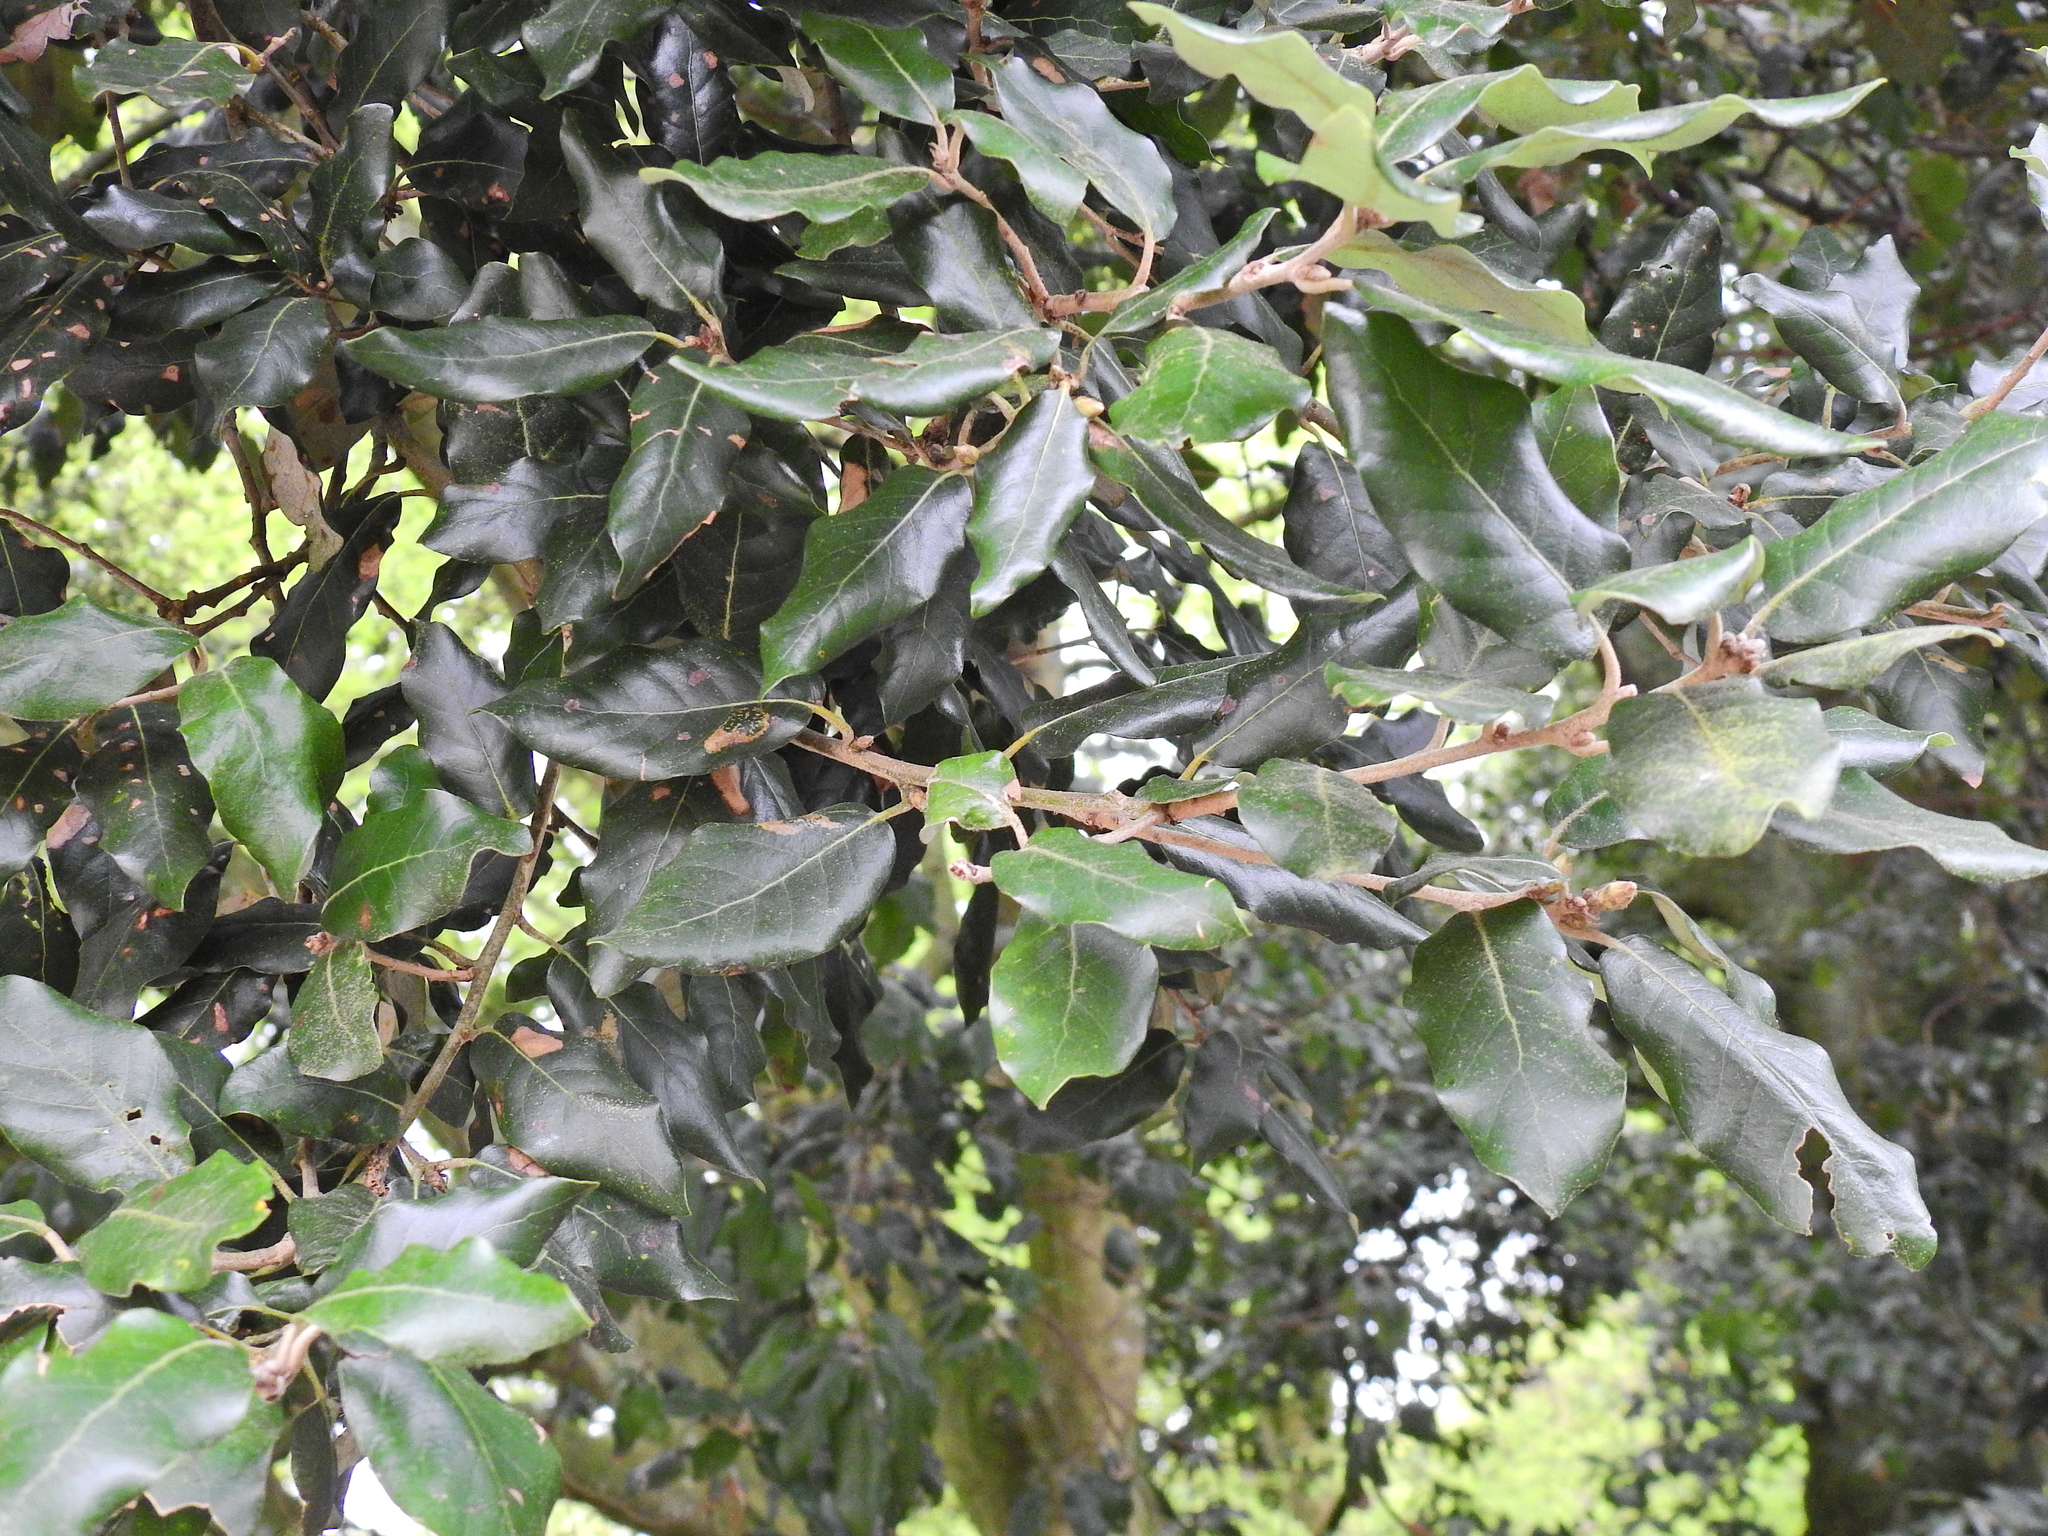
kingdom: Plantae
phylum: Tracheophyta
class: Magnoliopsida
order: Fagales
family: Fagaceae
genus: Quercus
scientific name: Quercus ilex
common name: Evergreen oak
